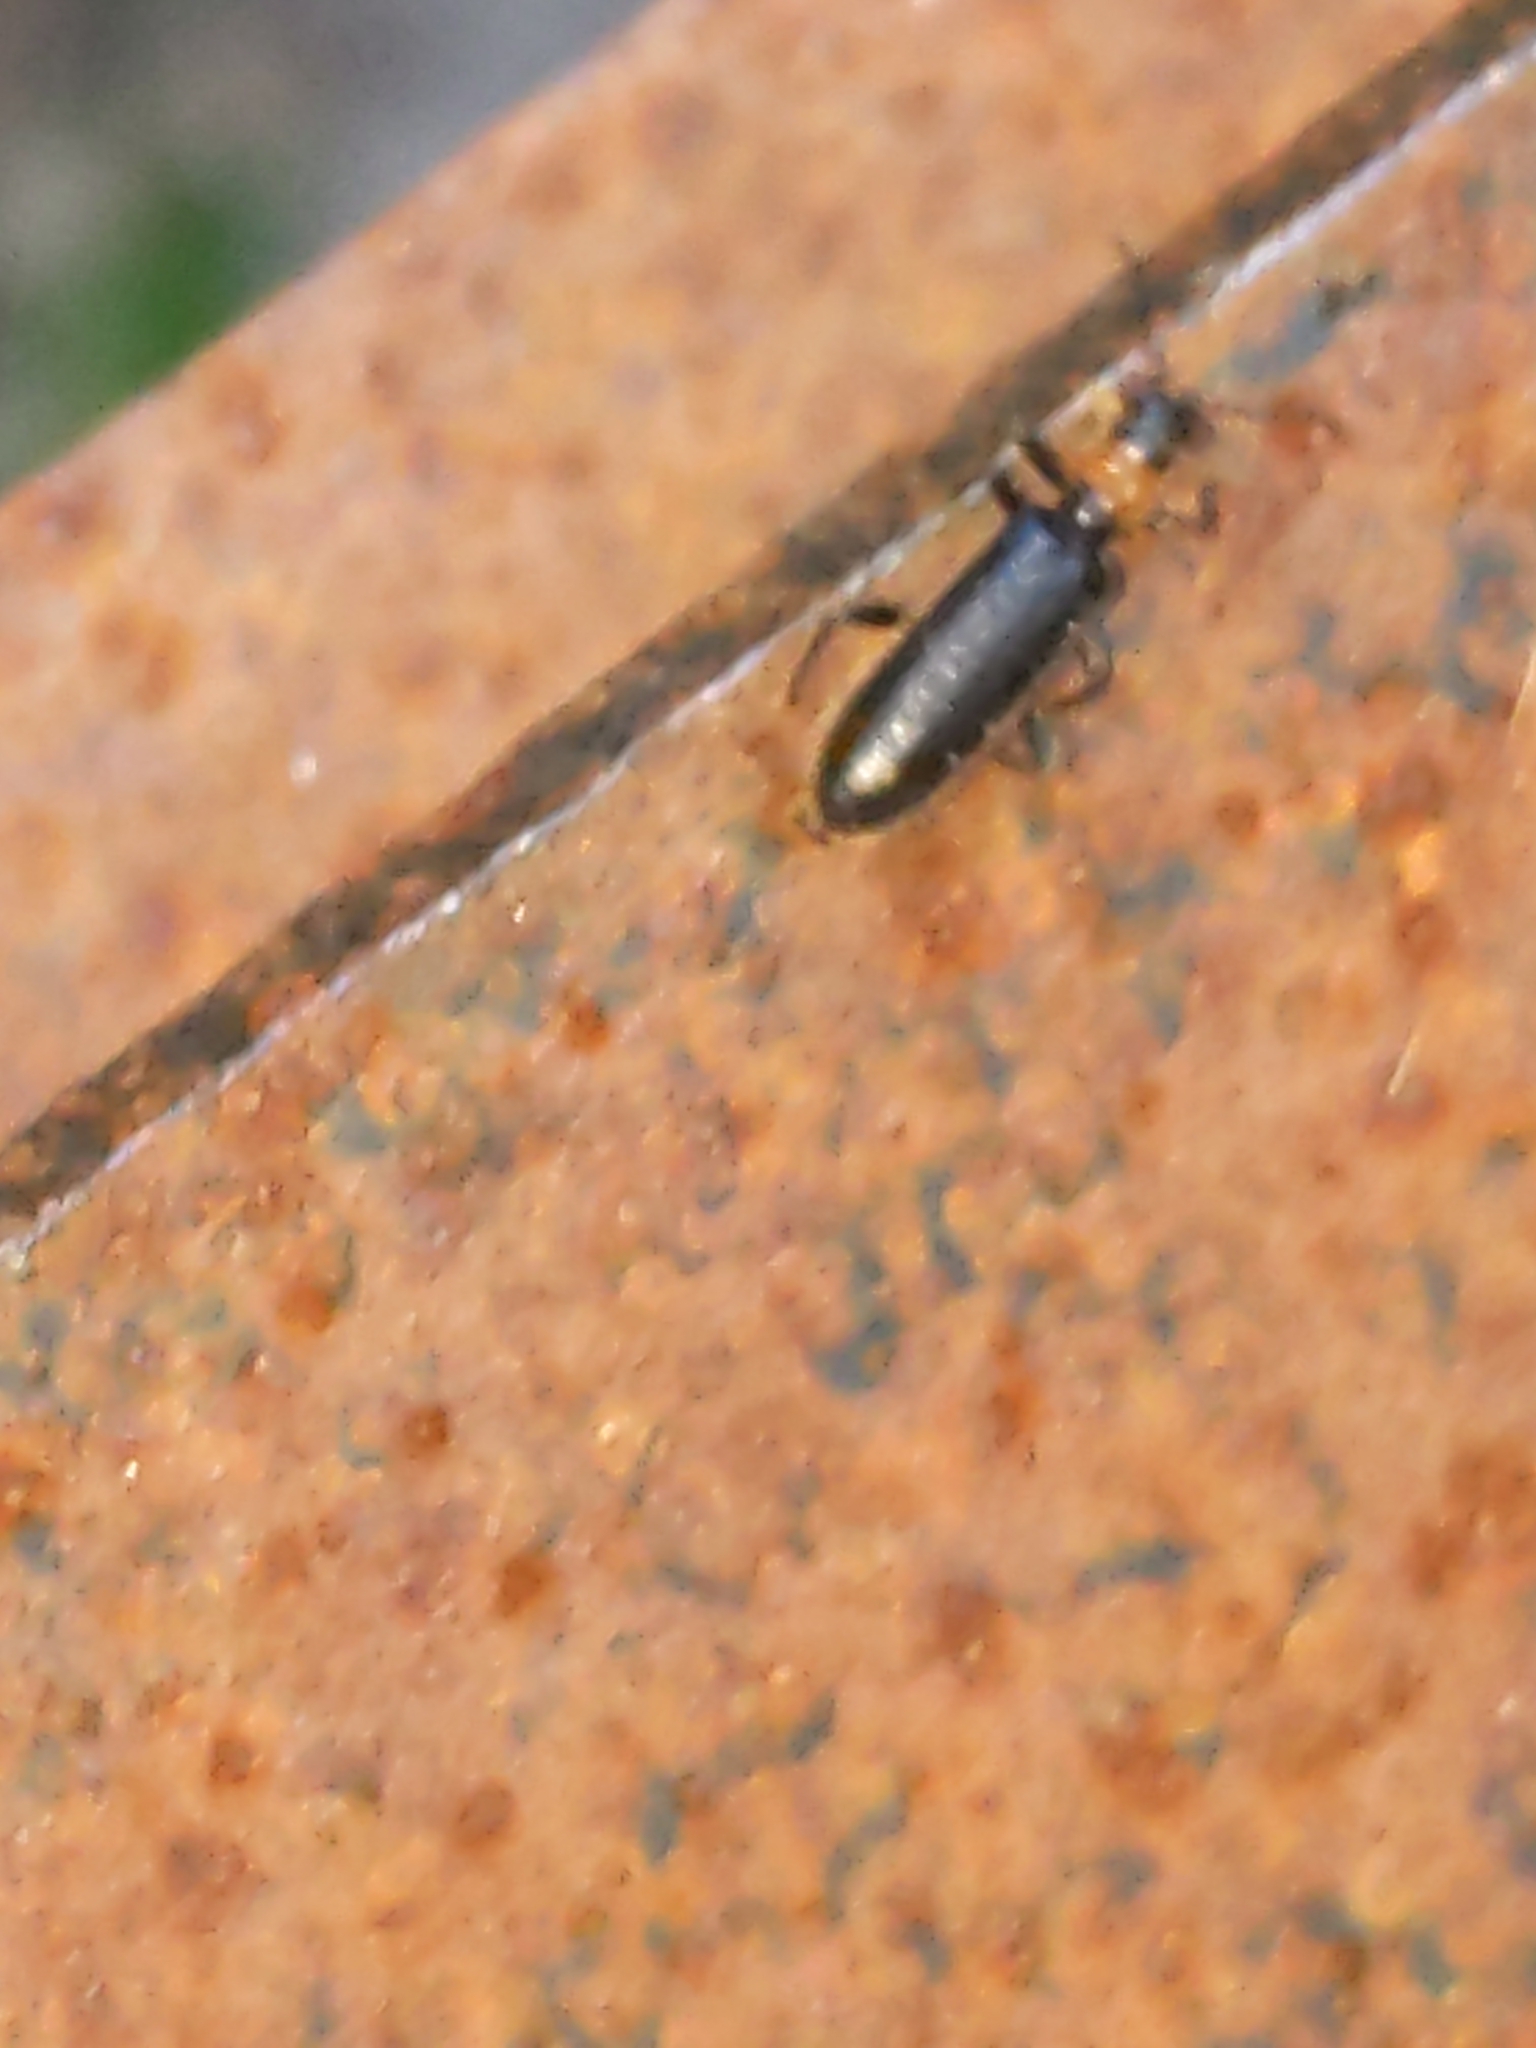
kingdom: Animalia
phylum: Arthropoda
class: Insecta
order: Coleoptera
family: Cleridae
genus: Cymatodera
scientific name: Cymatodera bicolor
